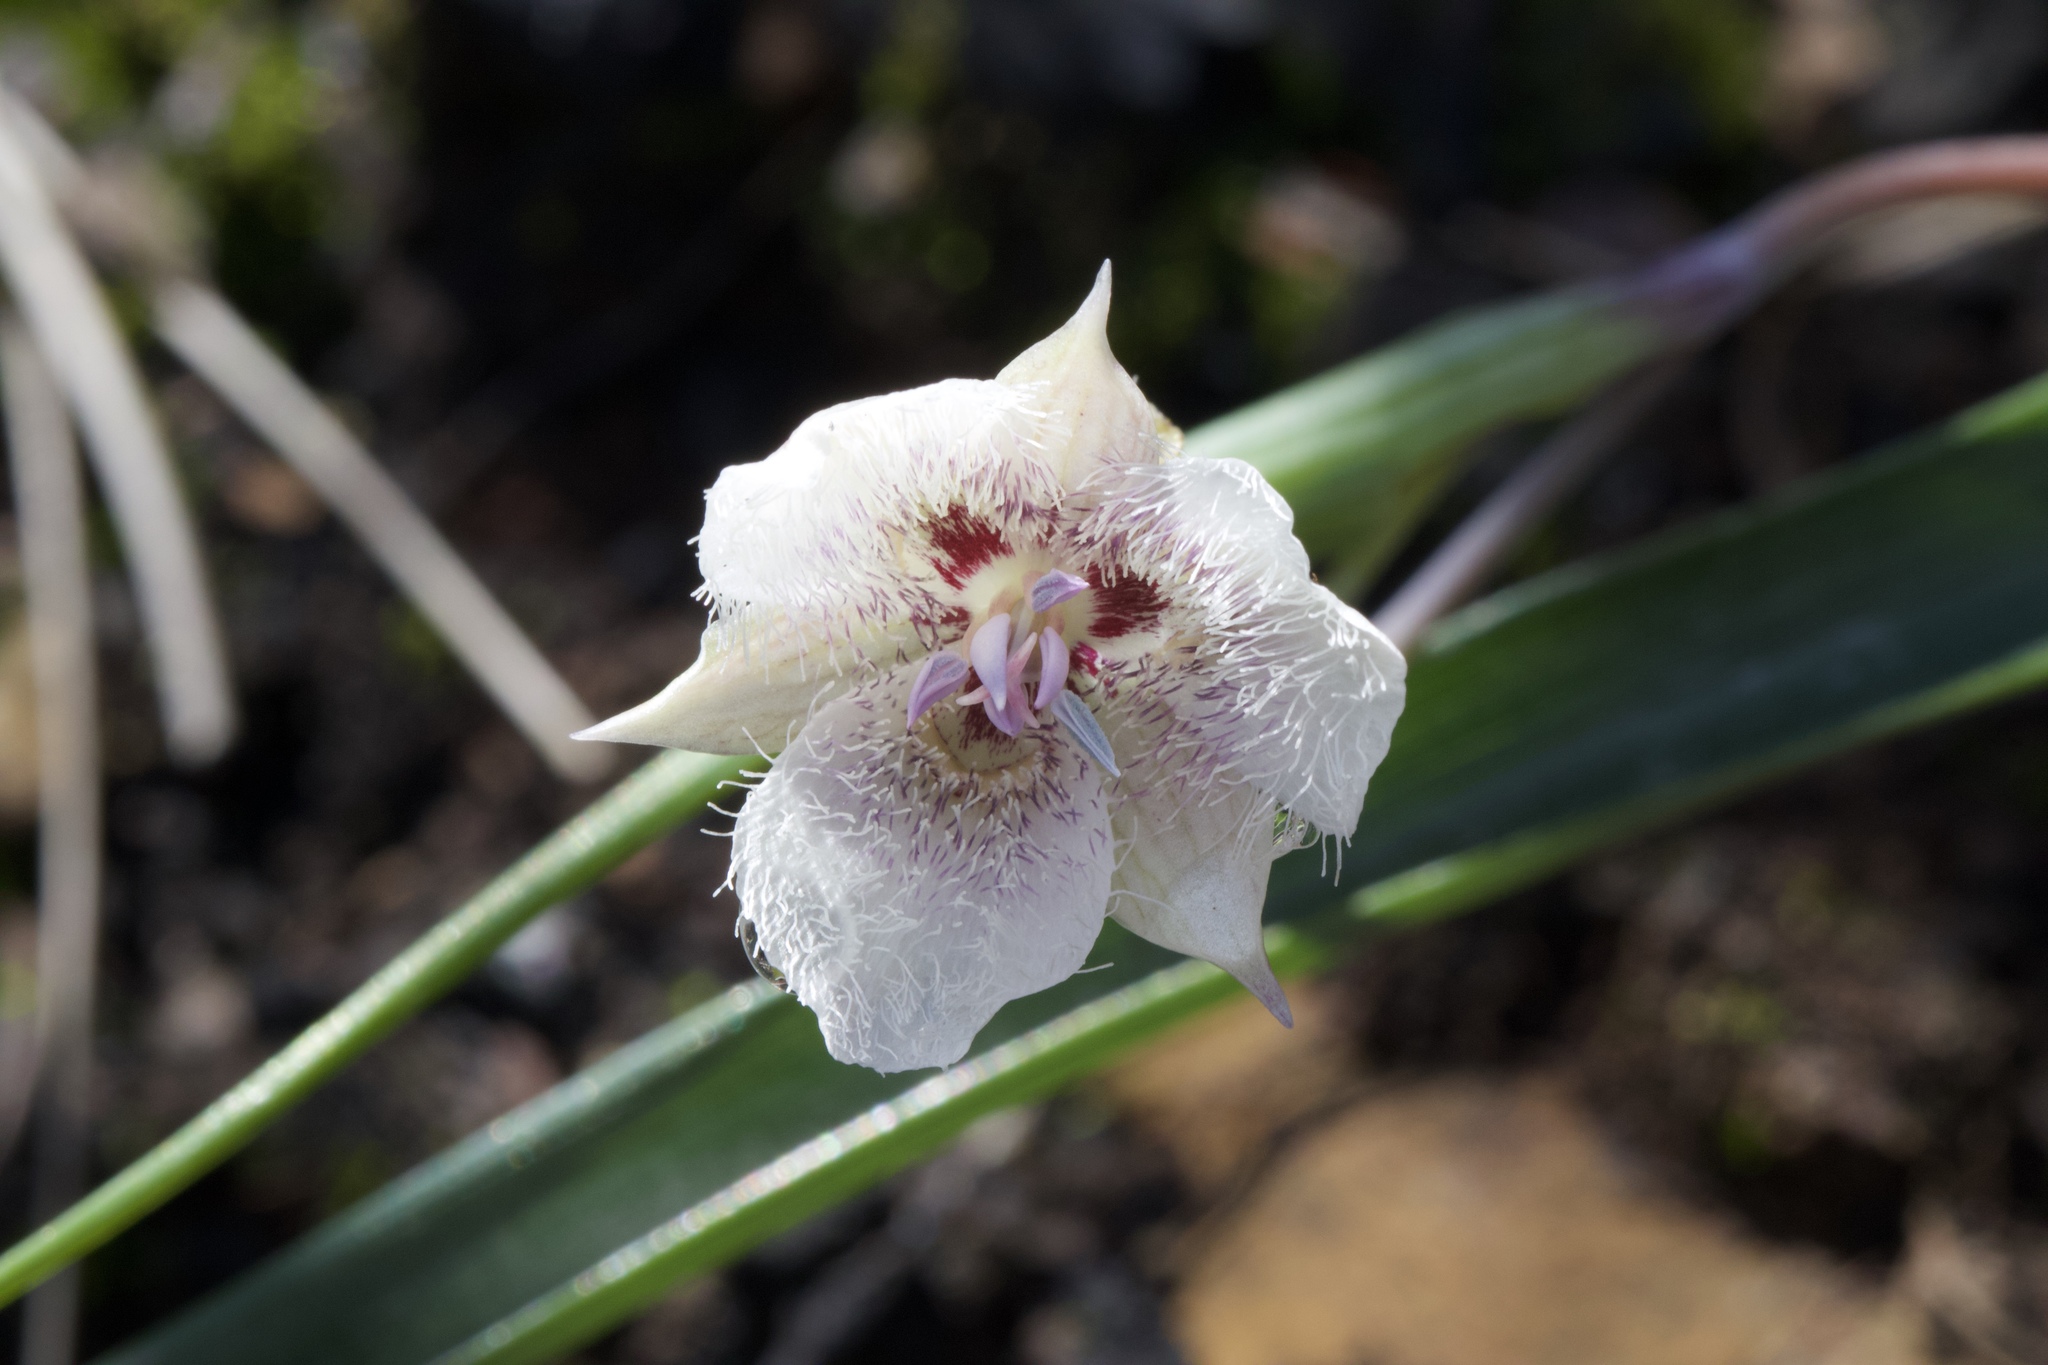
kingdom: Plantae
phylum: Tracheophyta
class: Liliopsida
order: Liliales
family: Liliaceae
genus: Calochortus
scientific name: Calochortus tolmiei
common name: Pussy-ears
